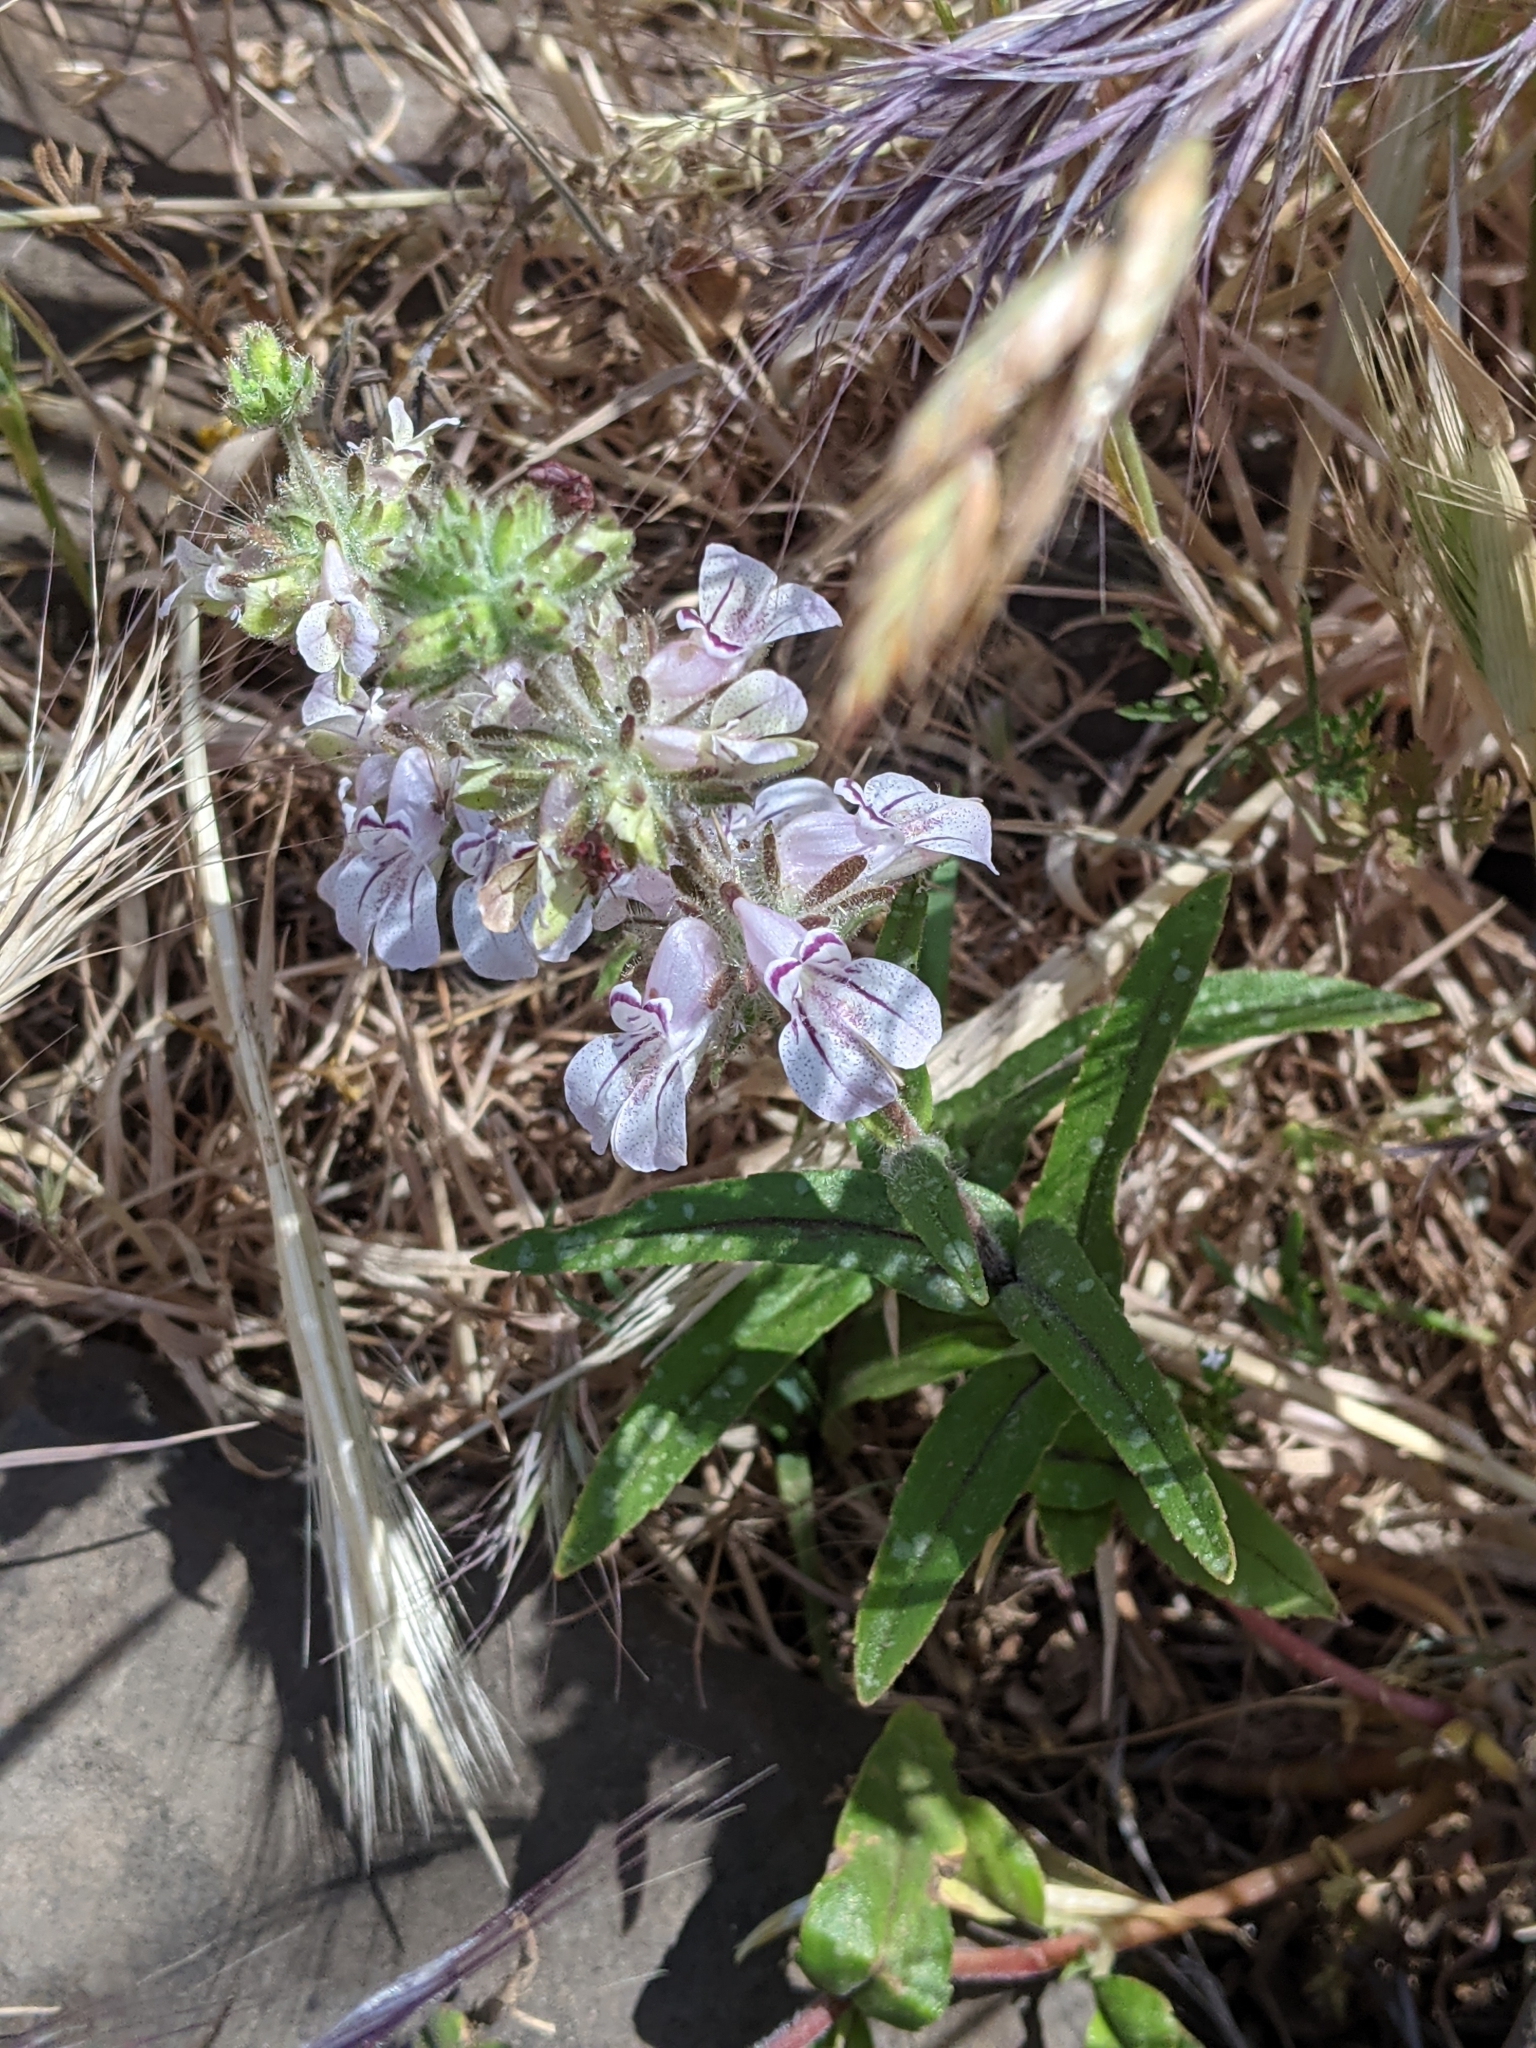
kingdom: Plantae
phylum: Tracheophyta
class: Magnoliopsida
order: Lamiales
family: Plantaginaceae
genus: Collinsia
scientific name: Collinsia tinctoria
